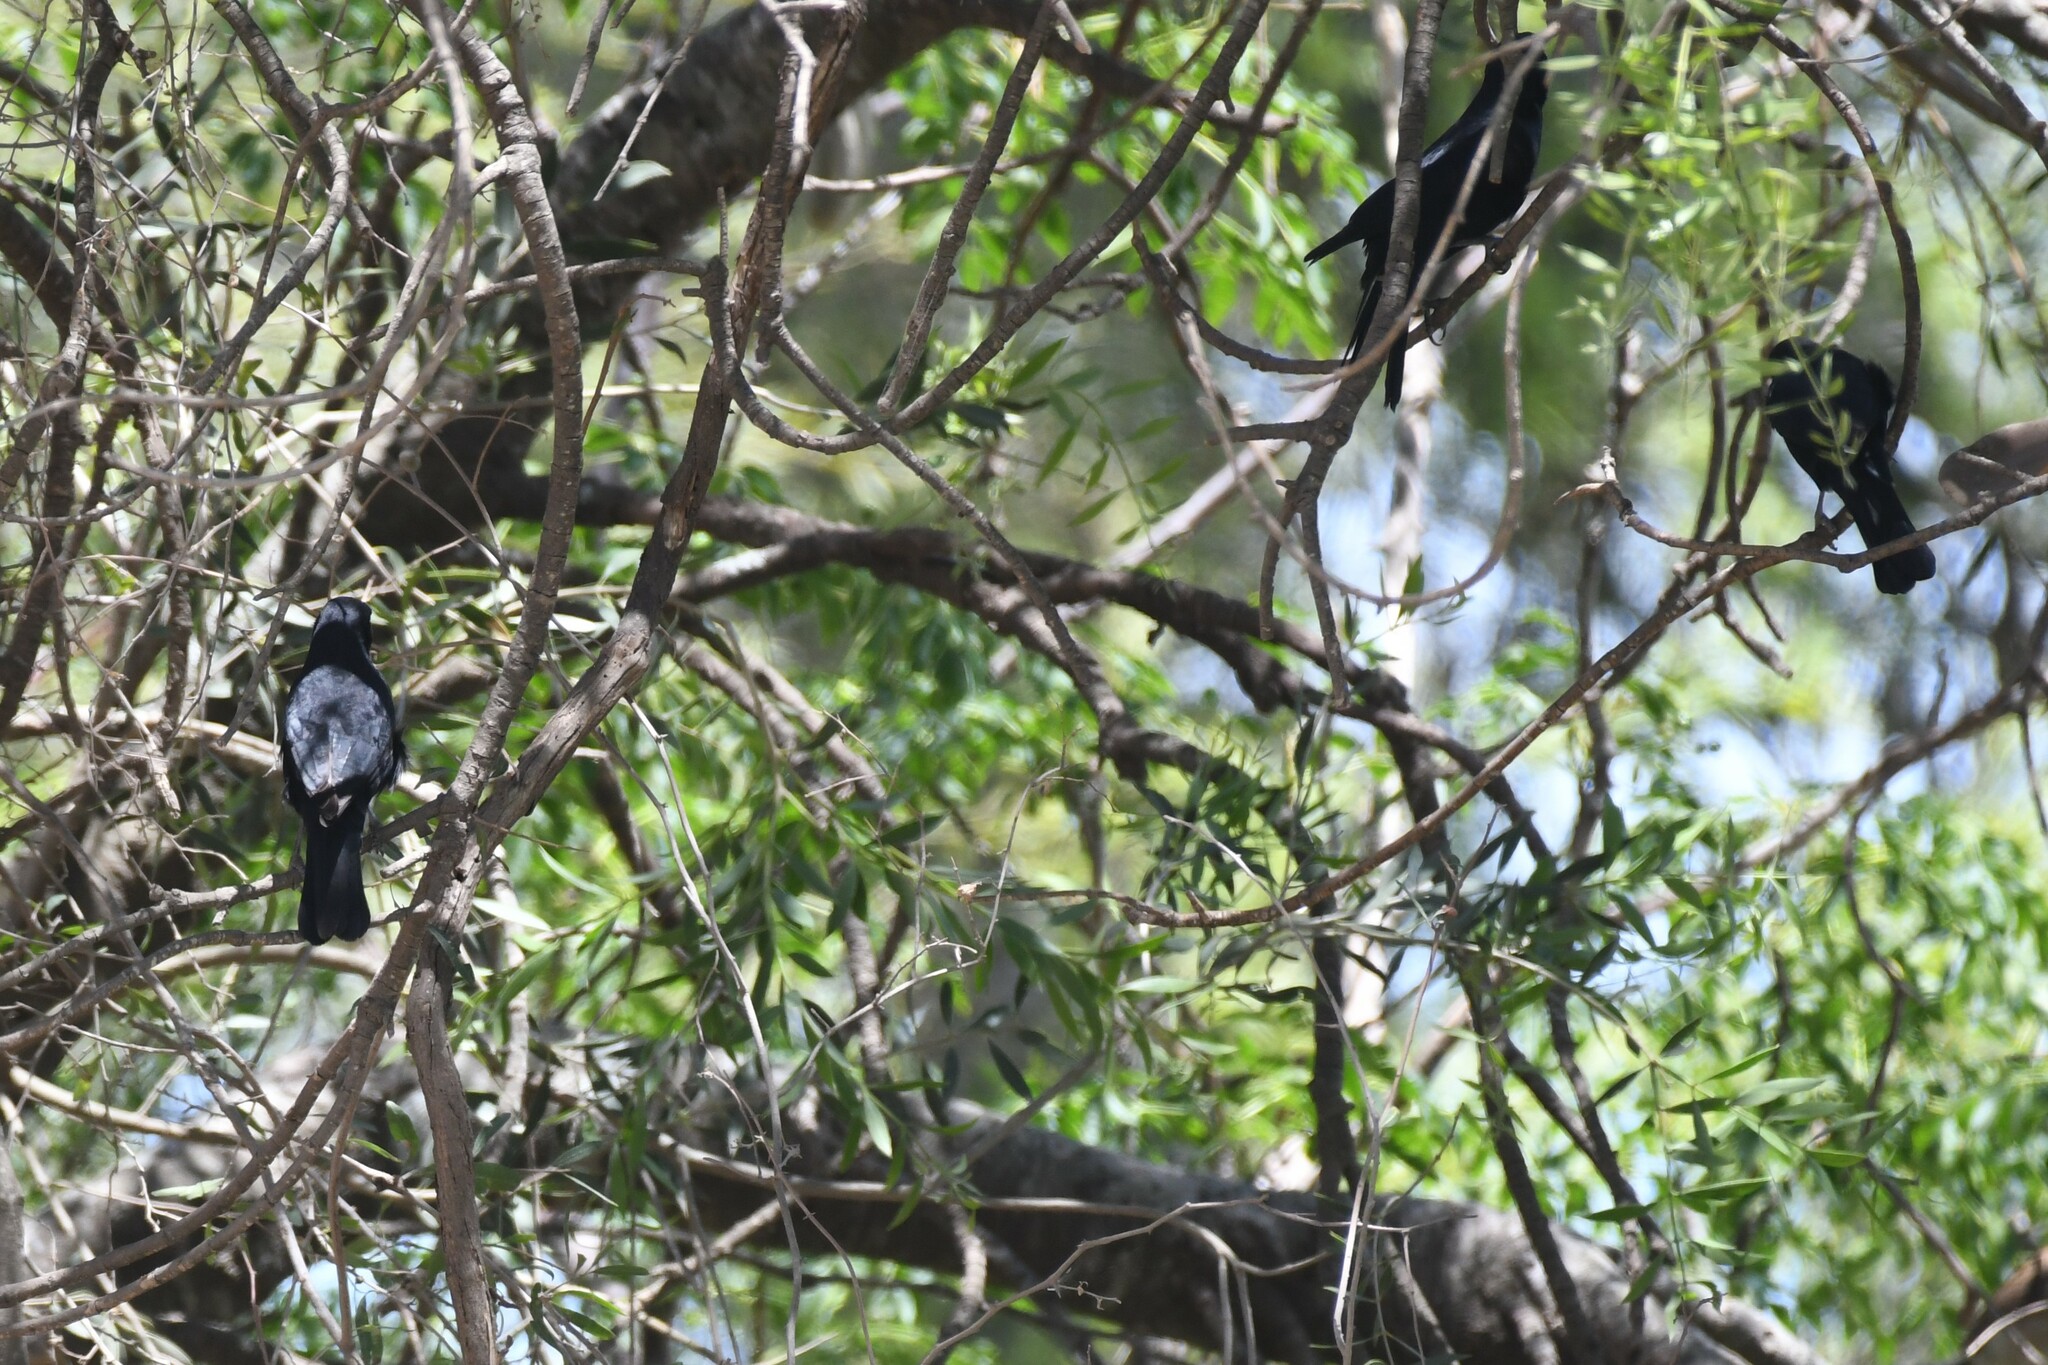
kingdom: Animalia
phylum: Chordata
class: Aves
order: Passeriformes
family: Icteridae
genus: Molothrus
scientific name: Molothrus rufoaxillaris
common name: Screaming cowbird
